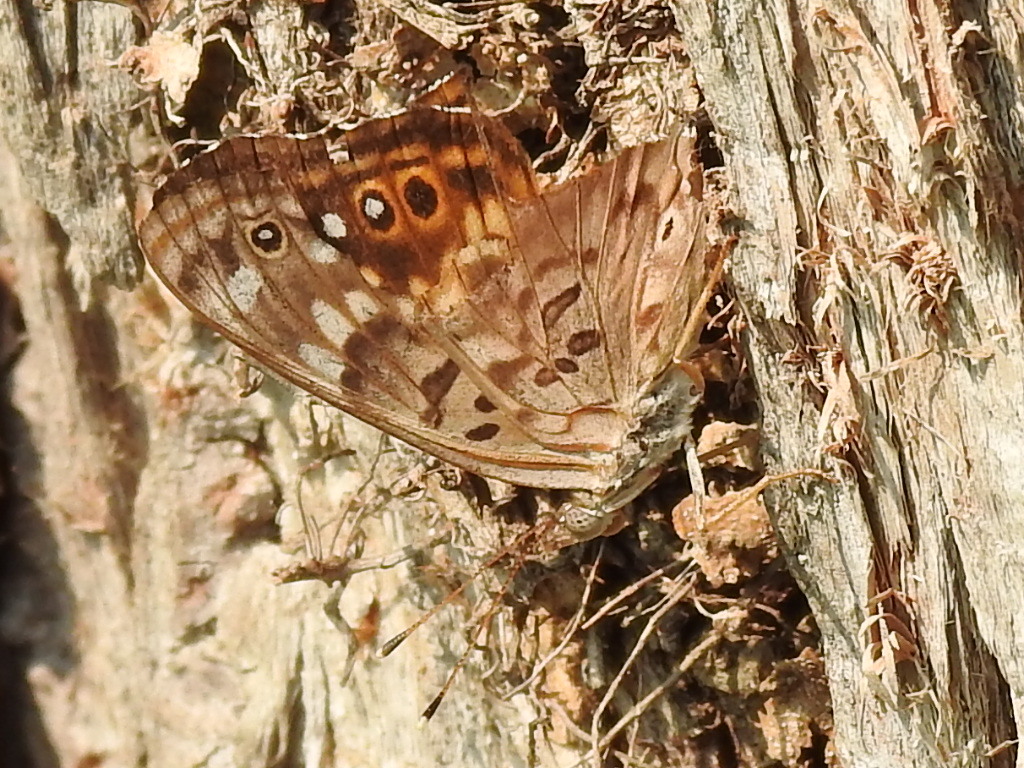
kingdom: Animalia
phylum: Arthropoda
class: Insecta
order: Lepidoptera
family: Nymphalidae
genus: Asterocampa
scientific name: Asterocampa celtis
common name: Hackberry emperor
